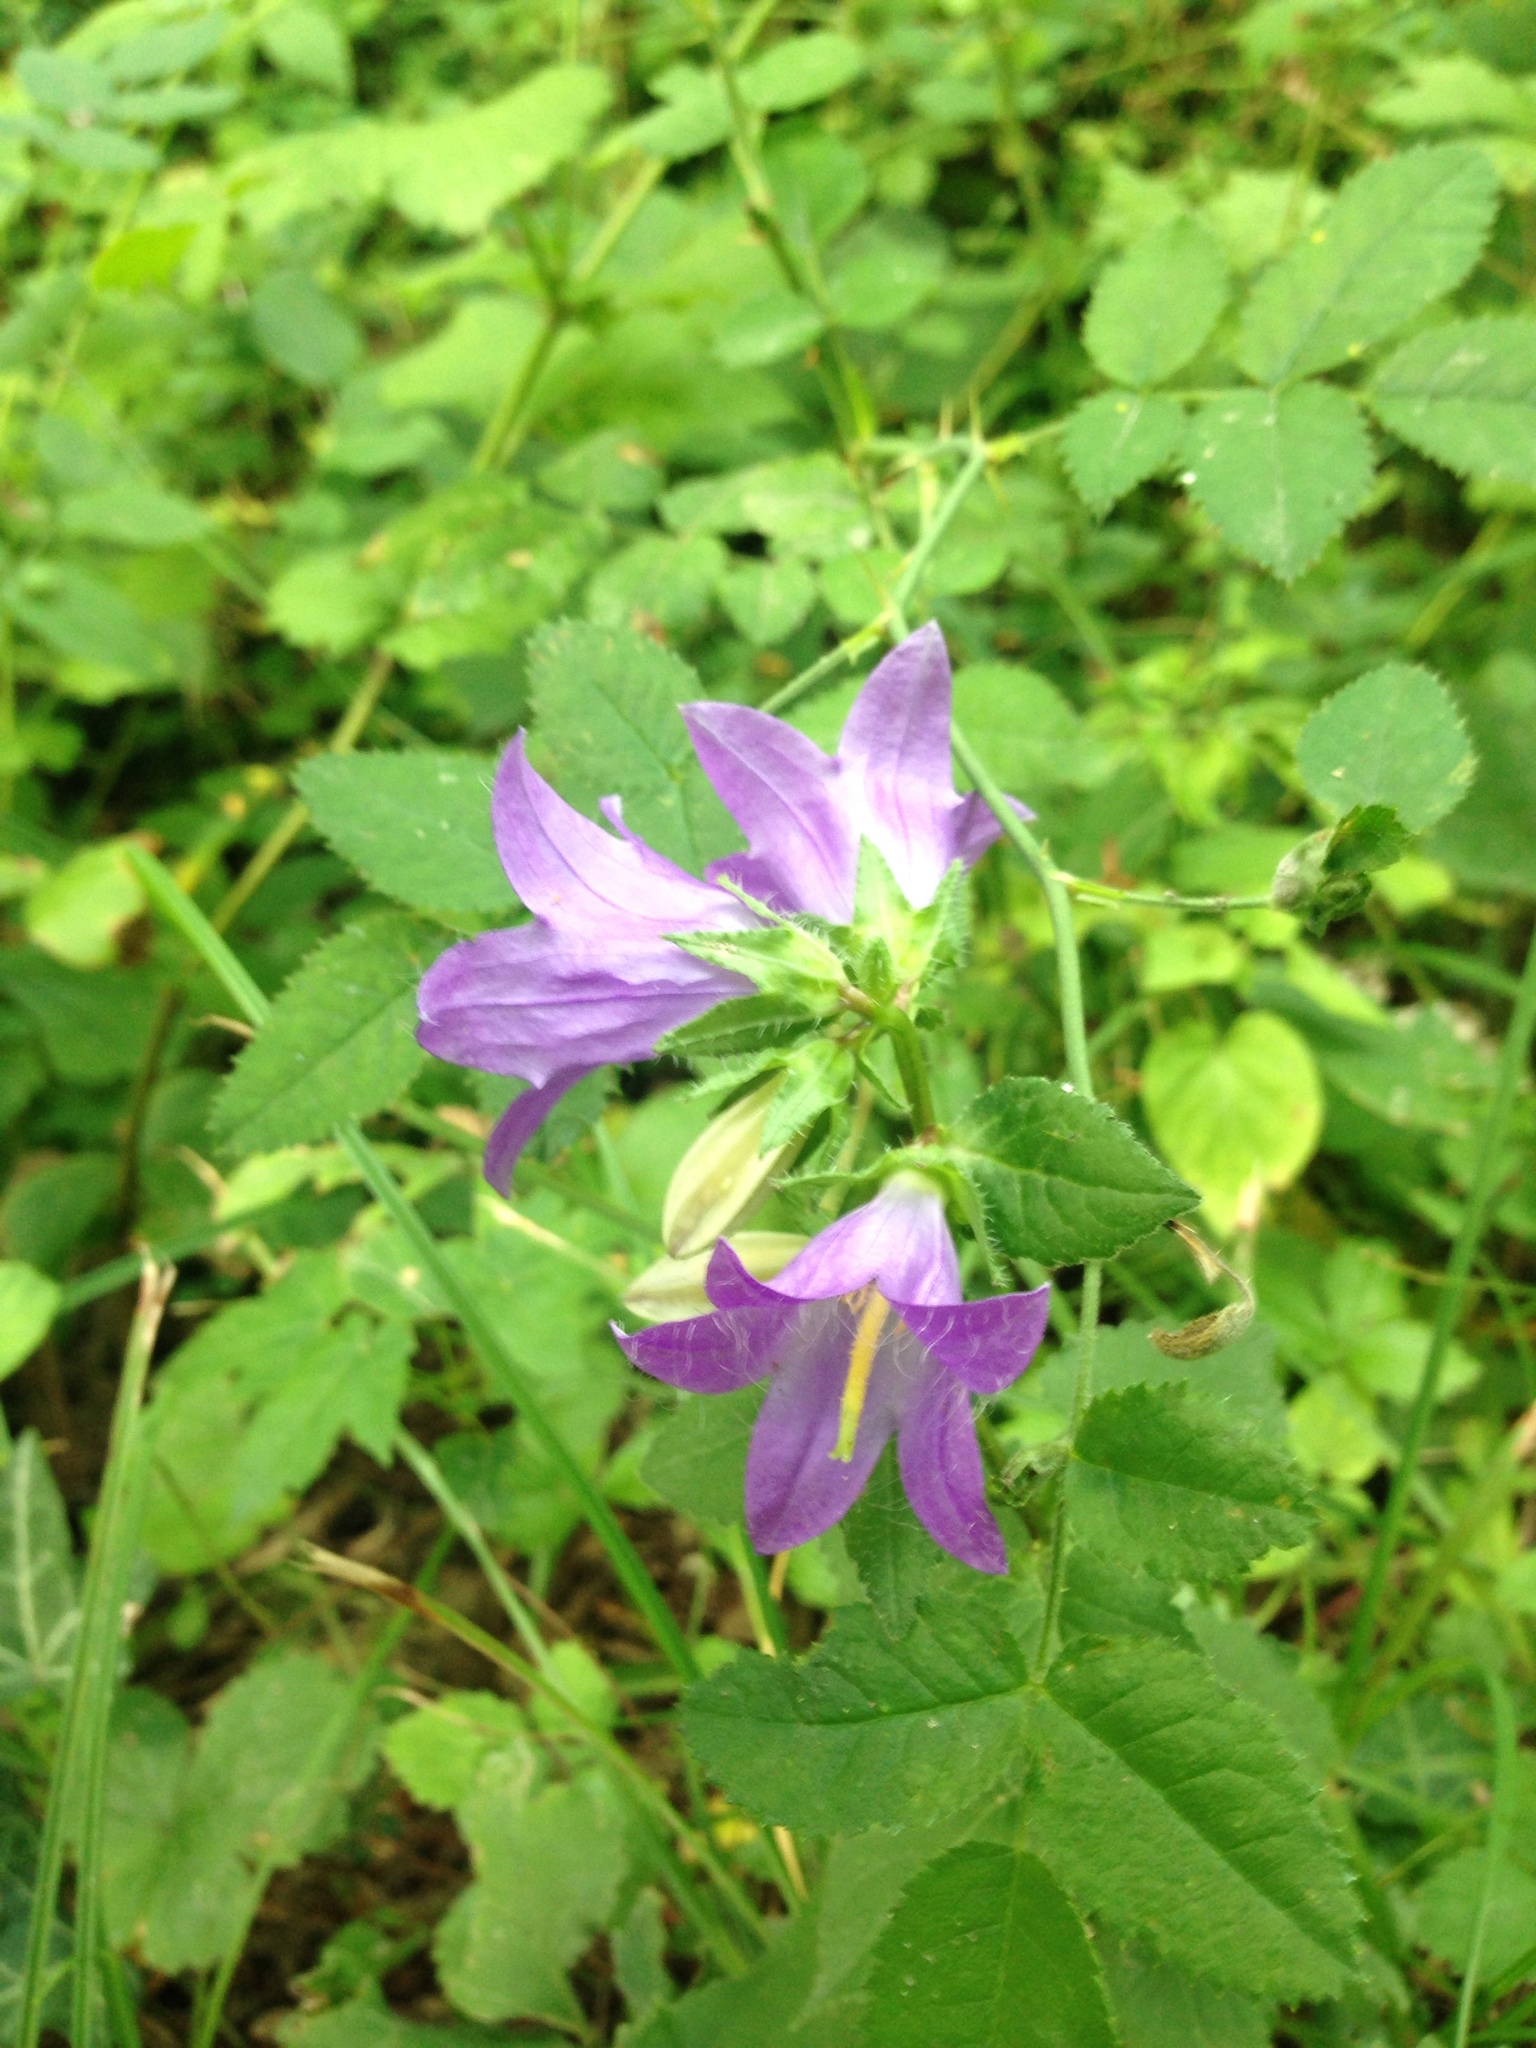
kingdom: Plantae
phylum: Tracheophyta
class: Magnoliopsida
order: Asterales
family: Campanulaceae
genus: Campanula
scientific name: Campanula trachelium
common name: Nettle-leaved bellflower
